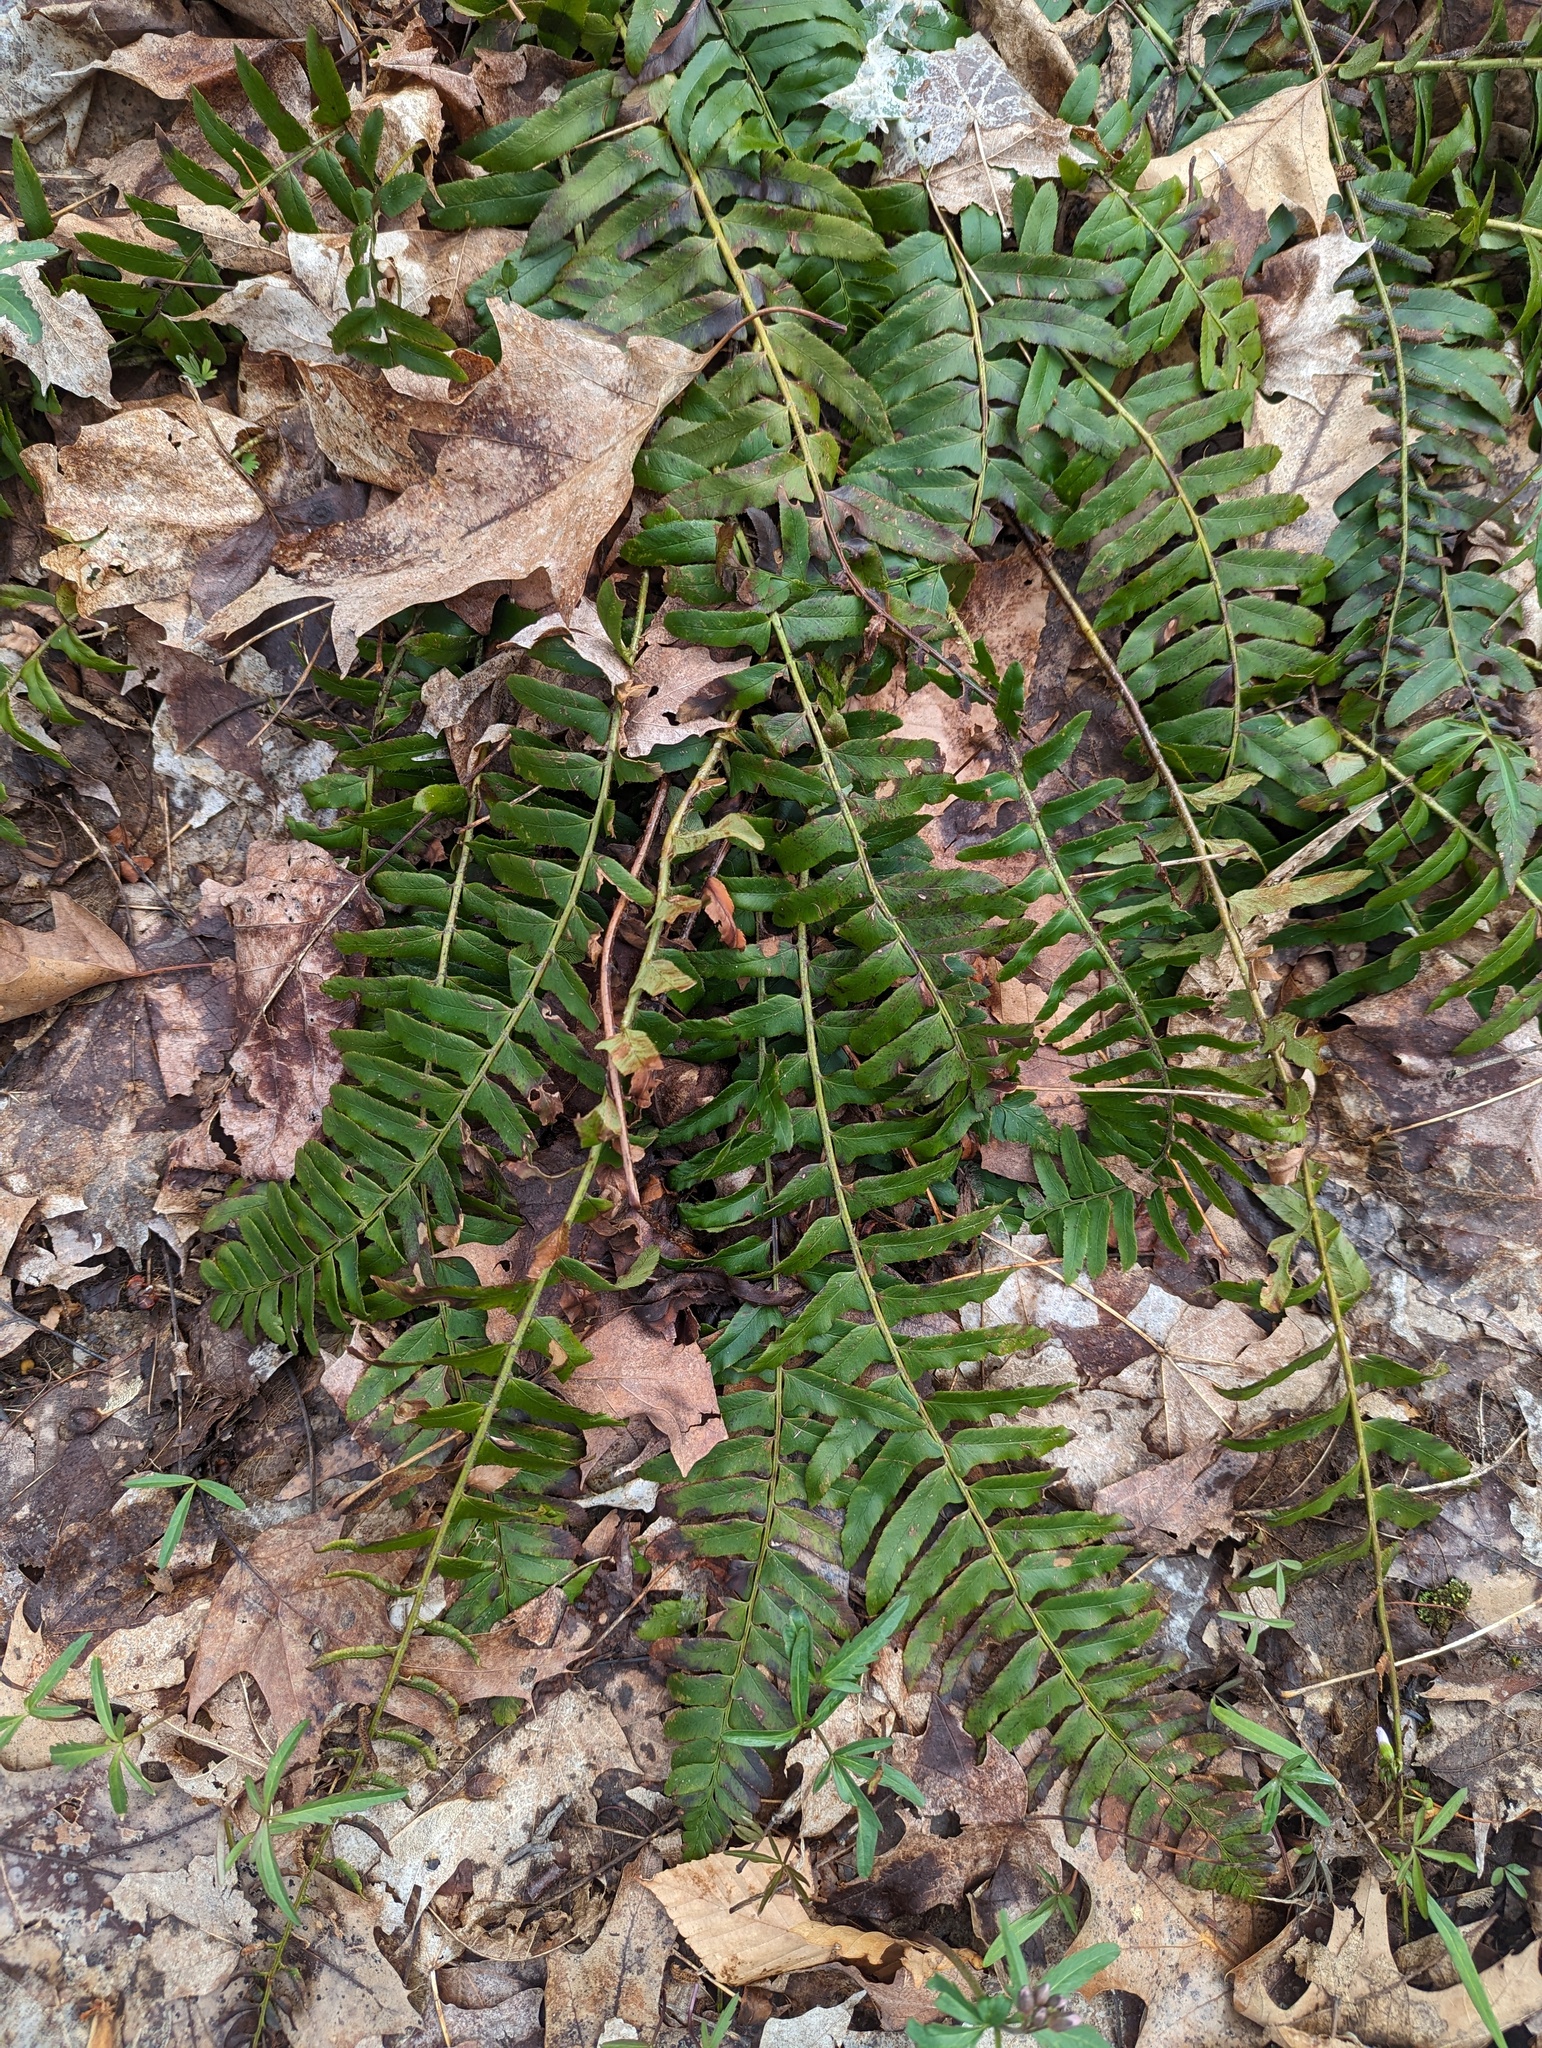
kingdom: Plantae
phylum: Tracheophyta
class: Polypodiopsida
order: Polypodiales
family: Dryopteridaceae
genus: Polystichum
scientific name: Polystichum acrostichoides
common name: Christmas fern
